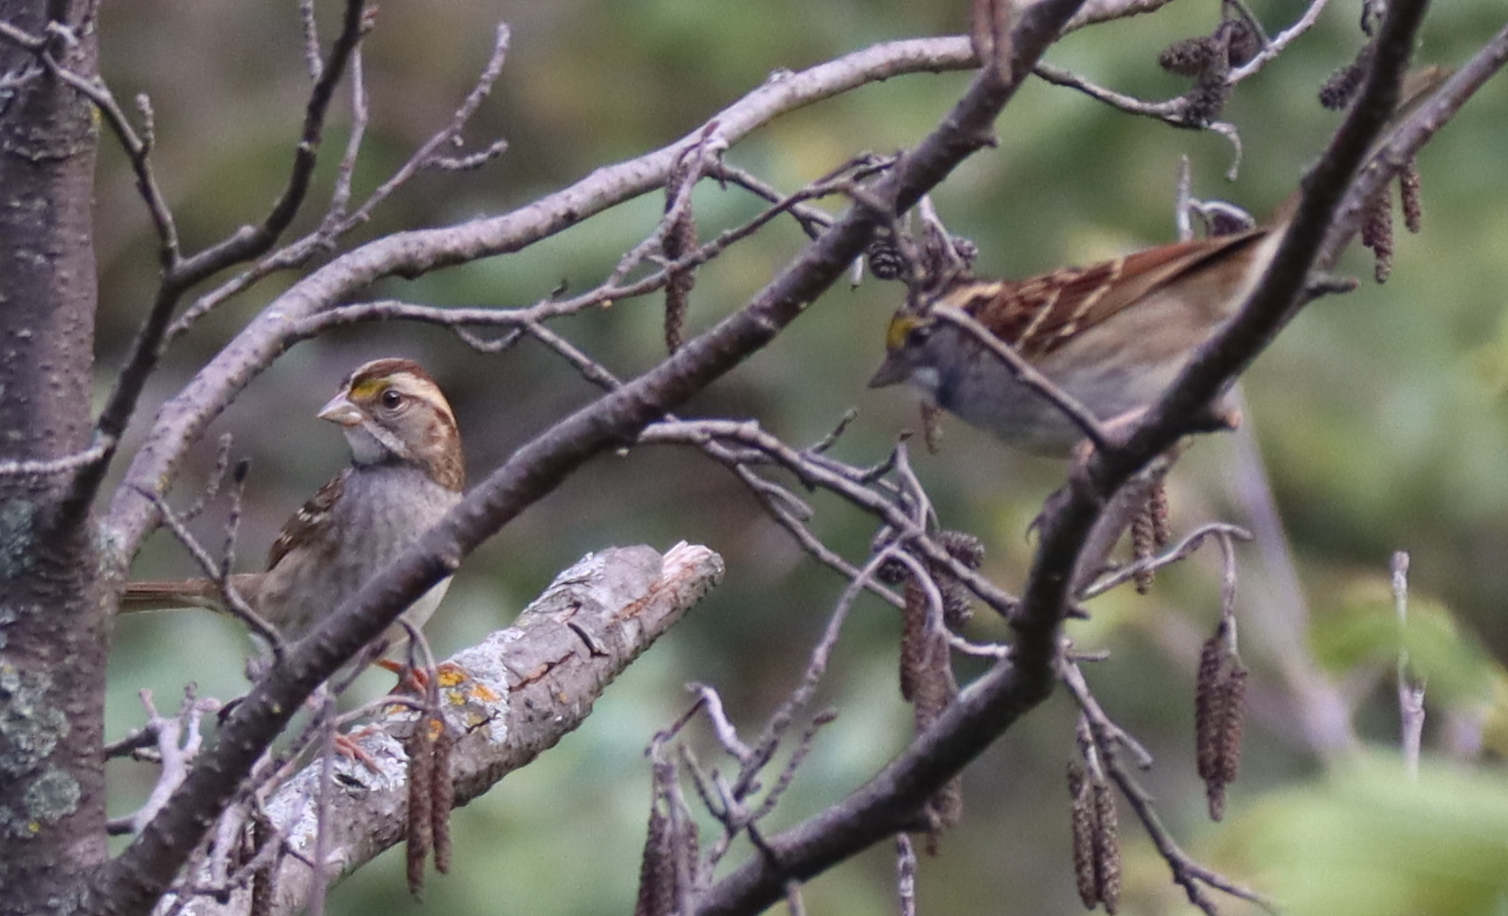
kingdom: Animalia
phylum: Chordata
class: Aves
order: Passeriformes
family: Passerellidae
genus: Zonotrichia
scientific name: Zonotrichia albicollis
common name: White-throated sparrow
